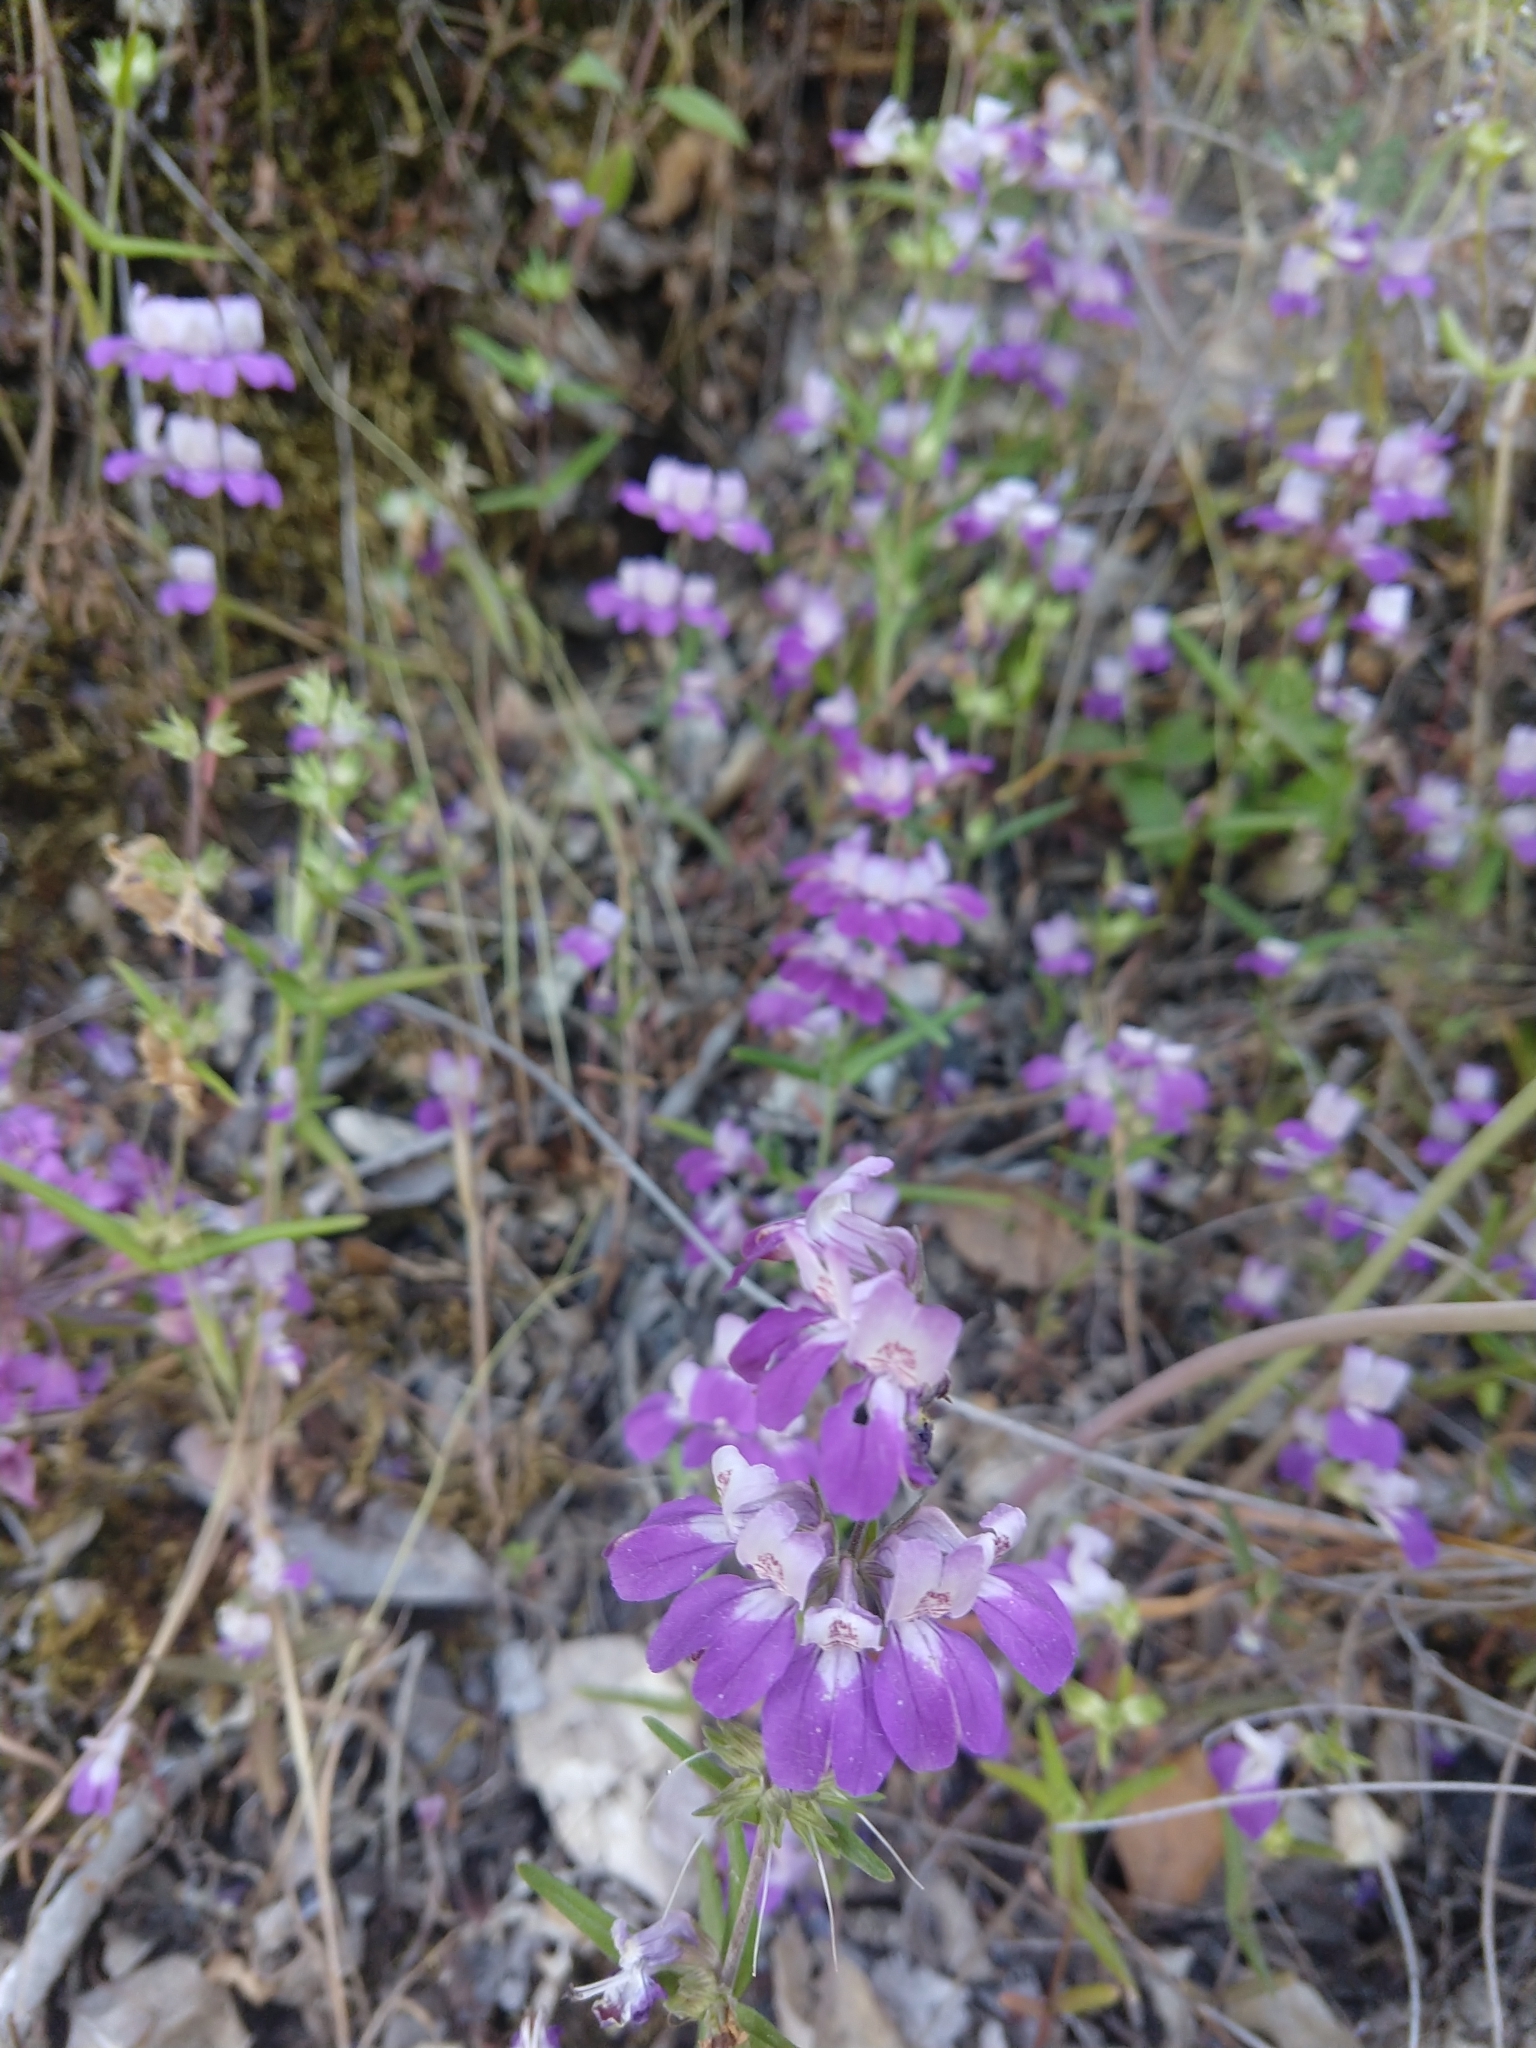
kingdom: Plantae
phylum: Tracheophyta
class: Magnoliopsida
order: Lamiales
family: Plantaginaceae
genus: Collinsia
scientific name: Collinsia heterophylla
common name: Chinese-houses
